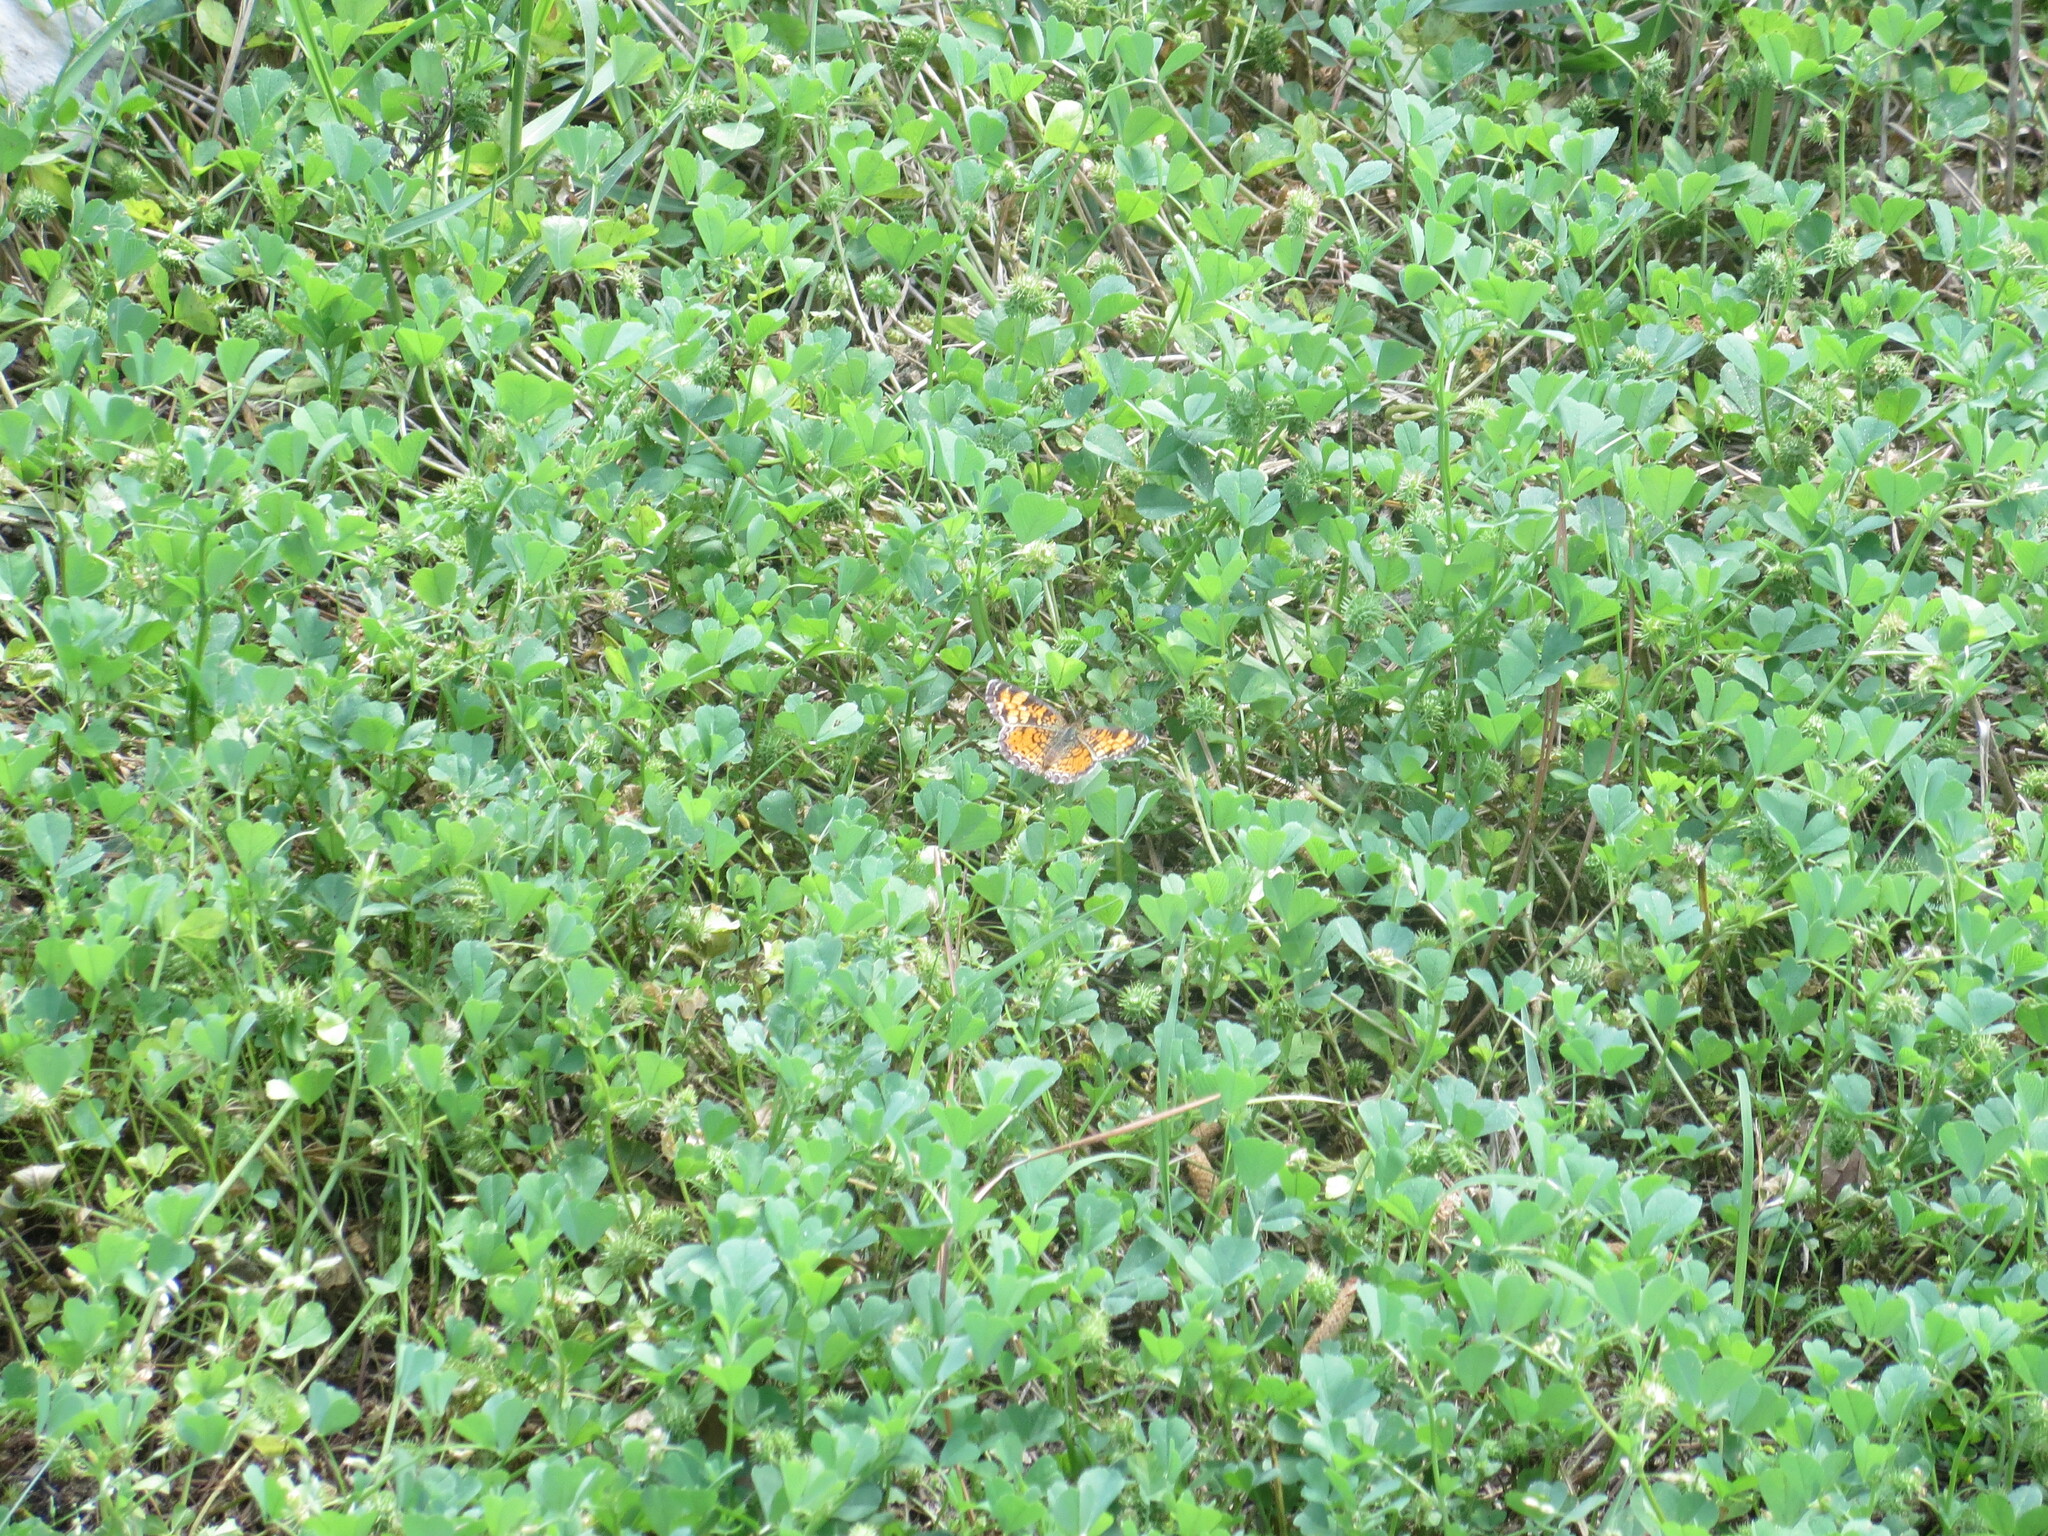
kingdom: Animalia
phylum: Arthropoda
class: Insecta
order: Lepidoptera
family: Nymphalidae
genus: Phyciodes
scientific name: Phyciodes tharos
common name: Pearl crescent
